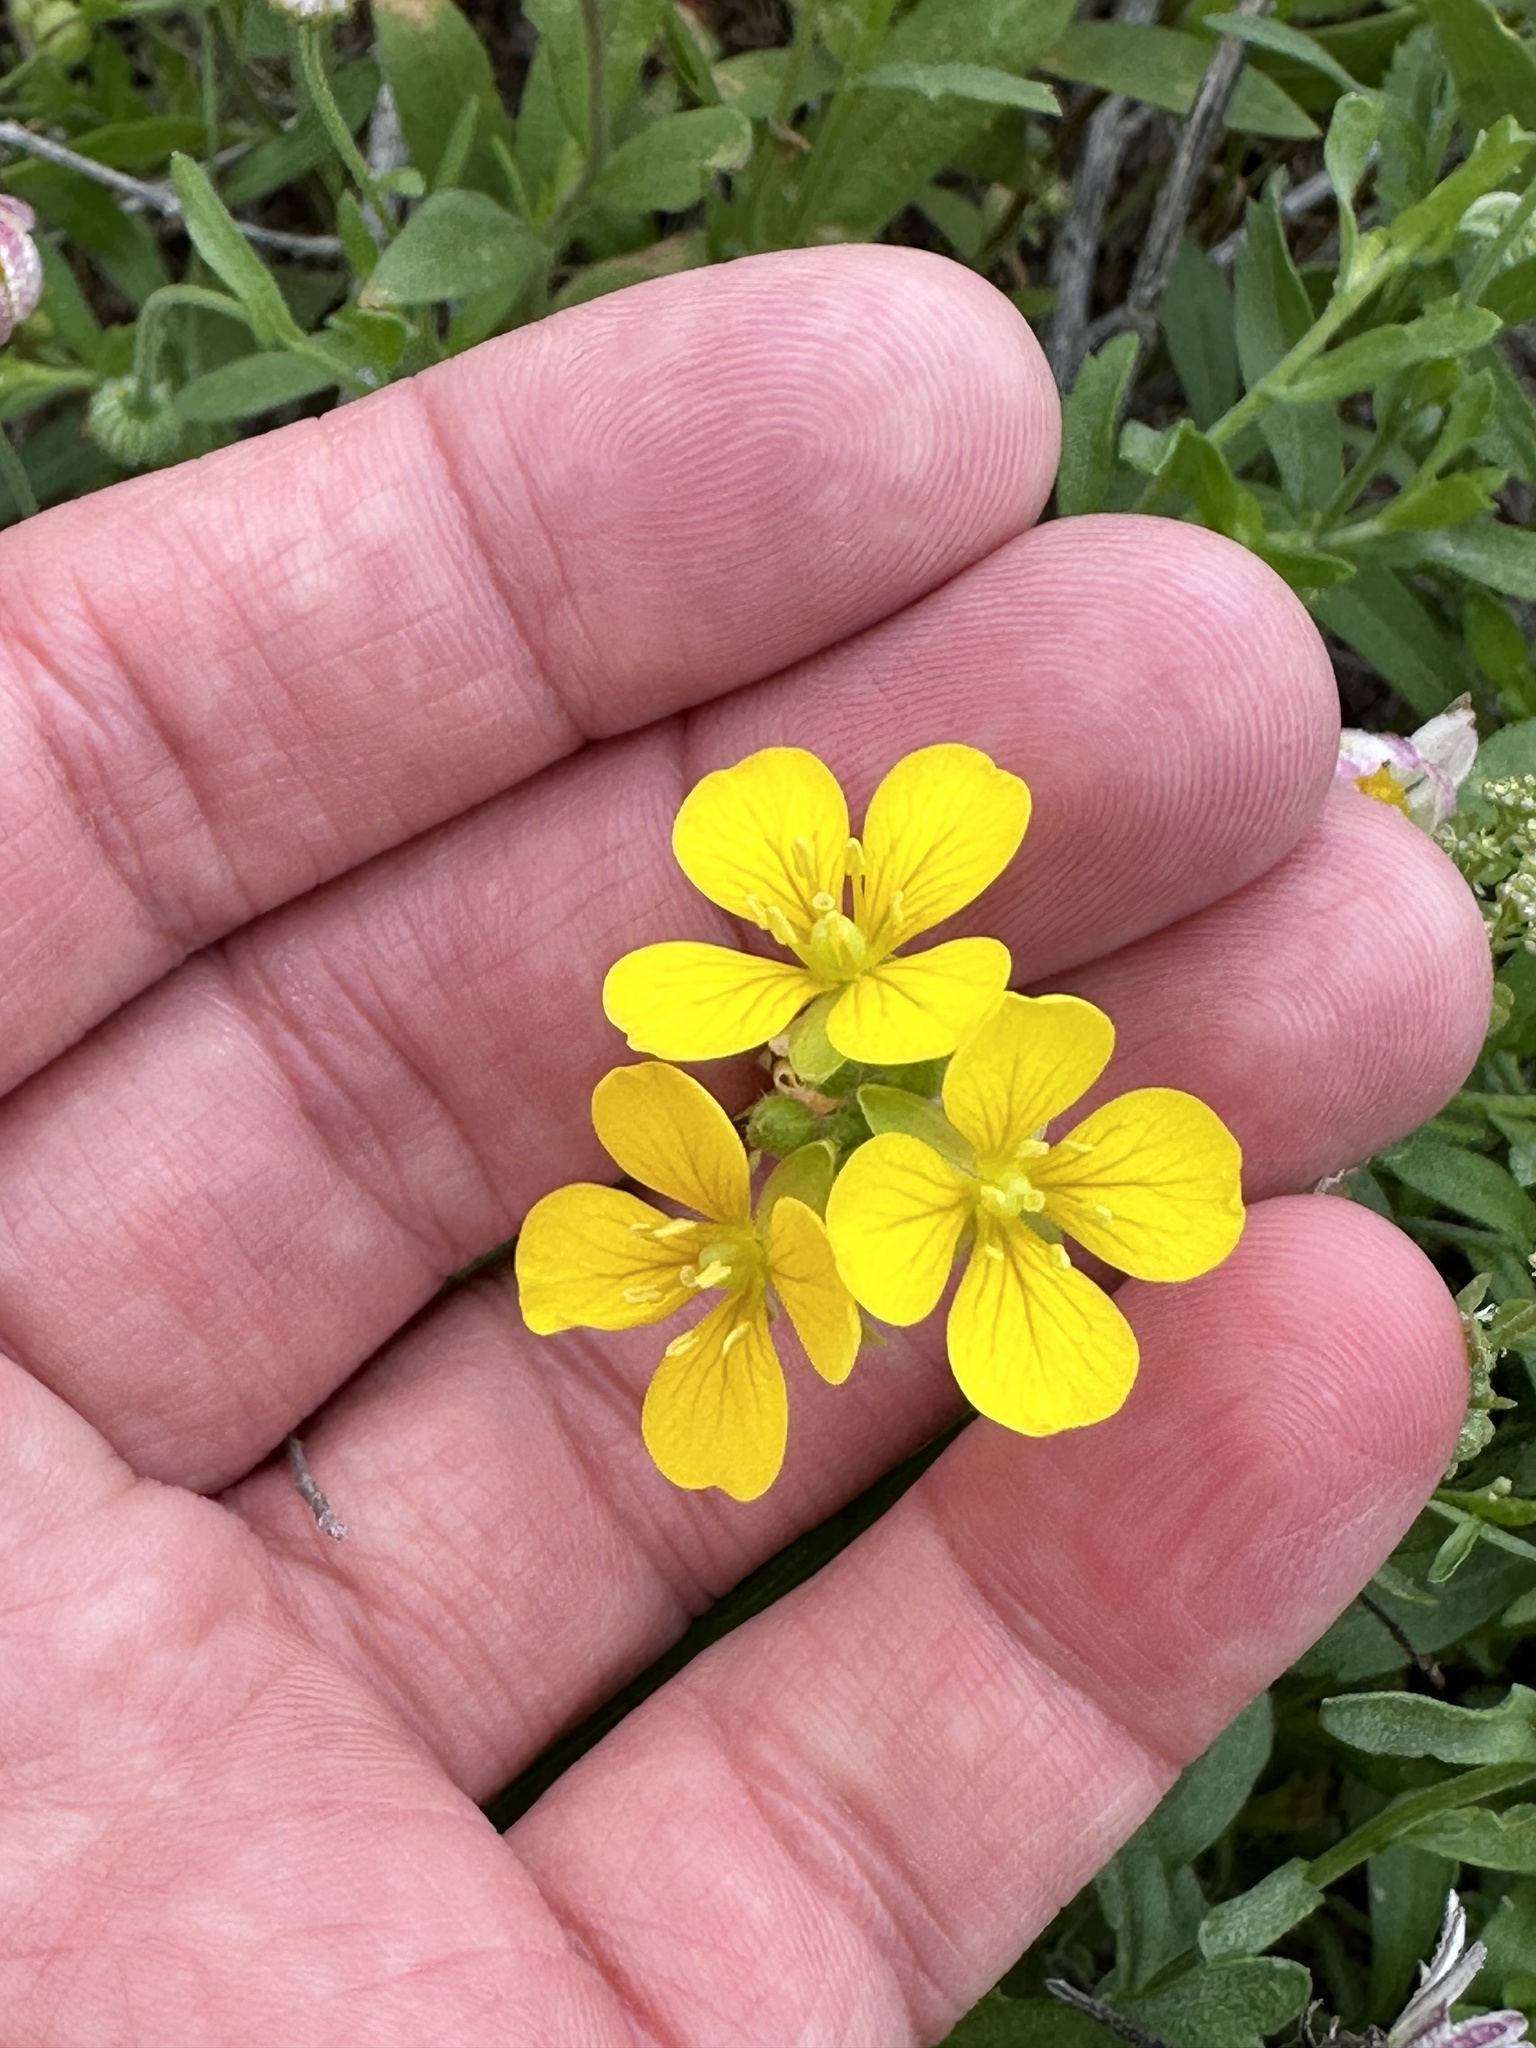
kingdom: Plantae
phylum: Tracheophyta
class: Magnoliopsida
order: Brassicales
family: Brassicaceae
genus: Physaria
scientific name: Physaria gracilis
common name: Spreading bladderpod
